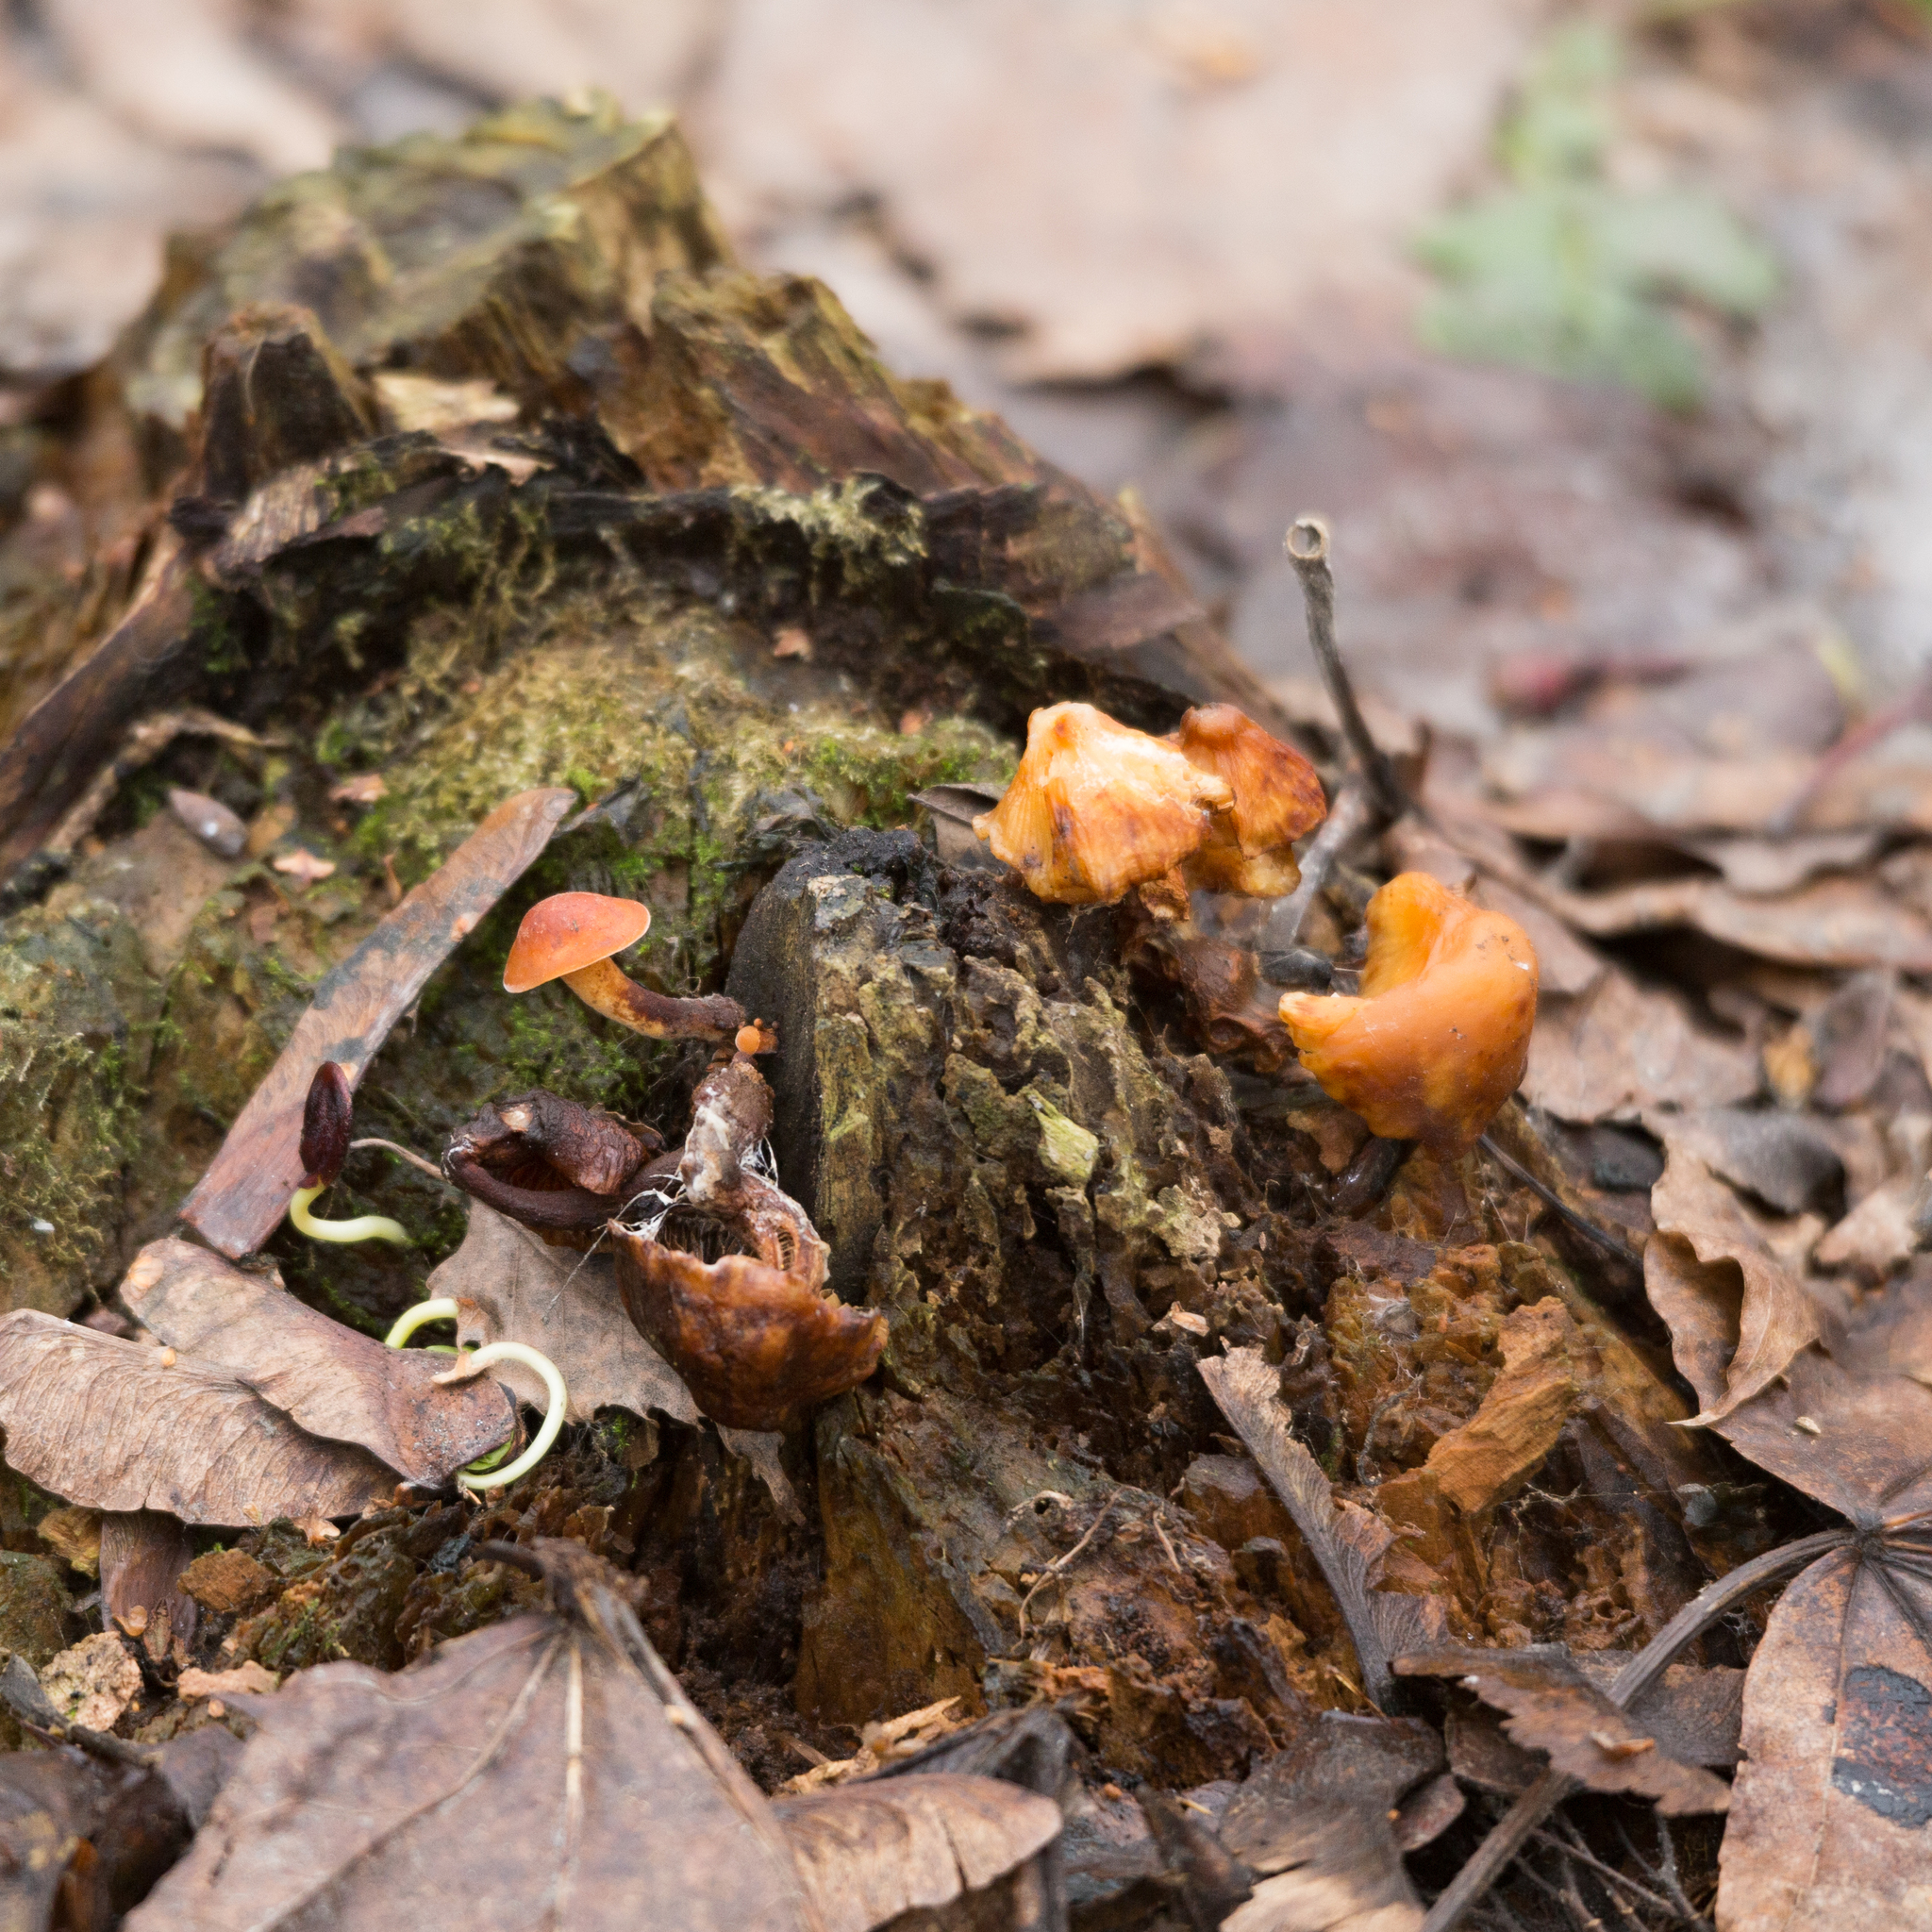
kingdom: Fungi
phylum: Basidiomycota
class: Agaricomycetes
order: Agaricales
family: Physalacriaceae
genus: Flammulina
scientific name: Flammulina
